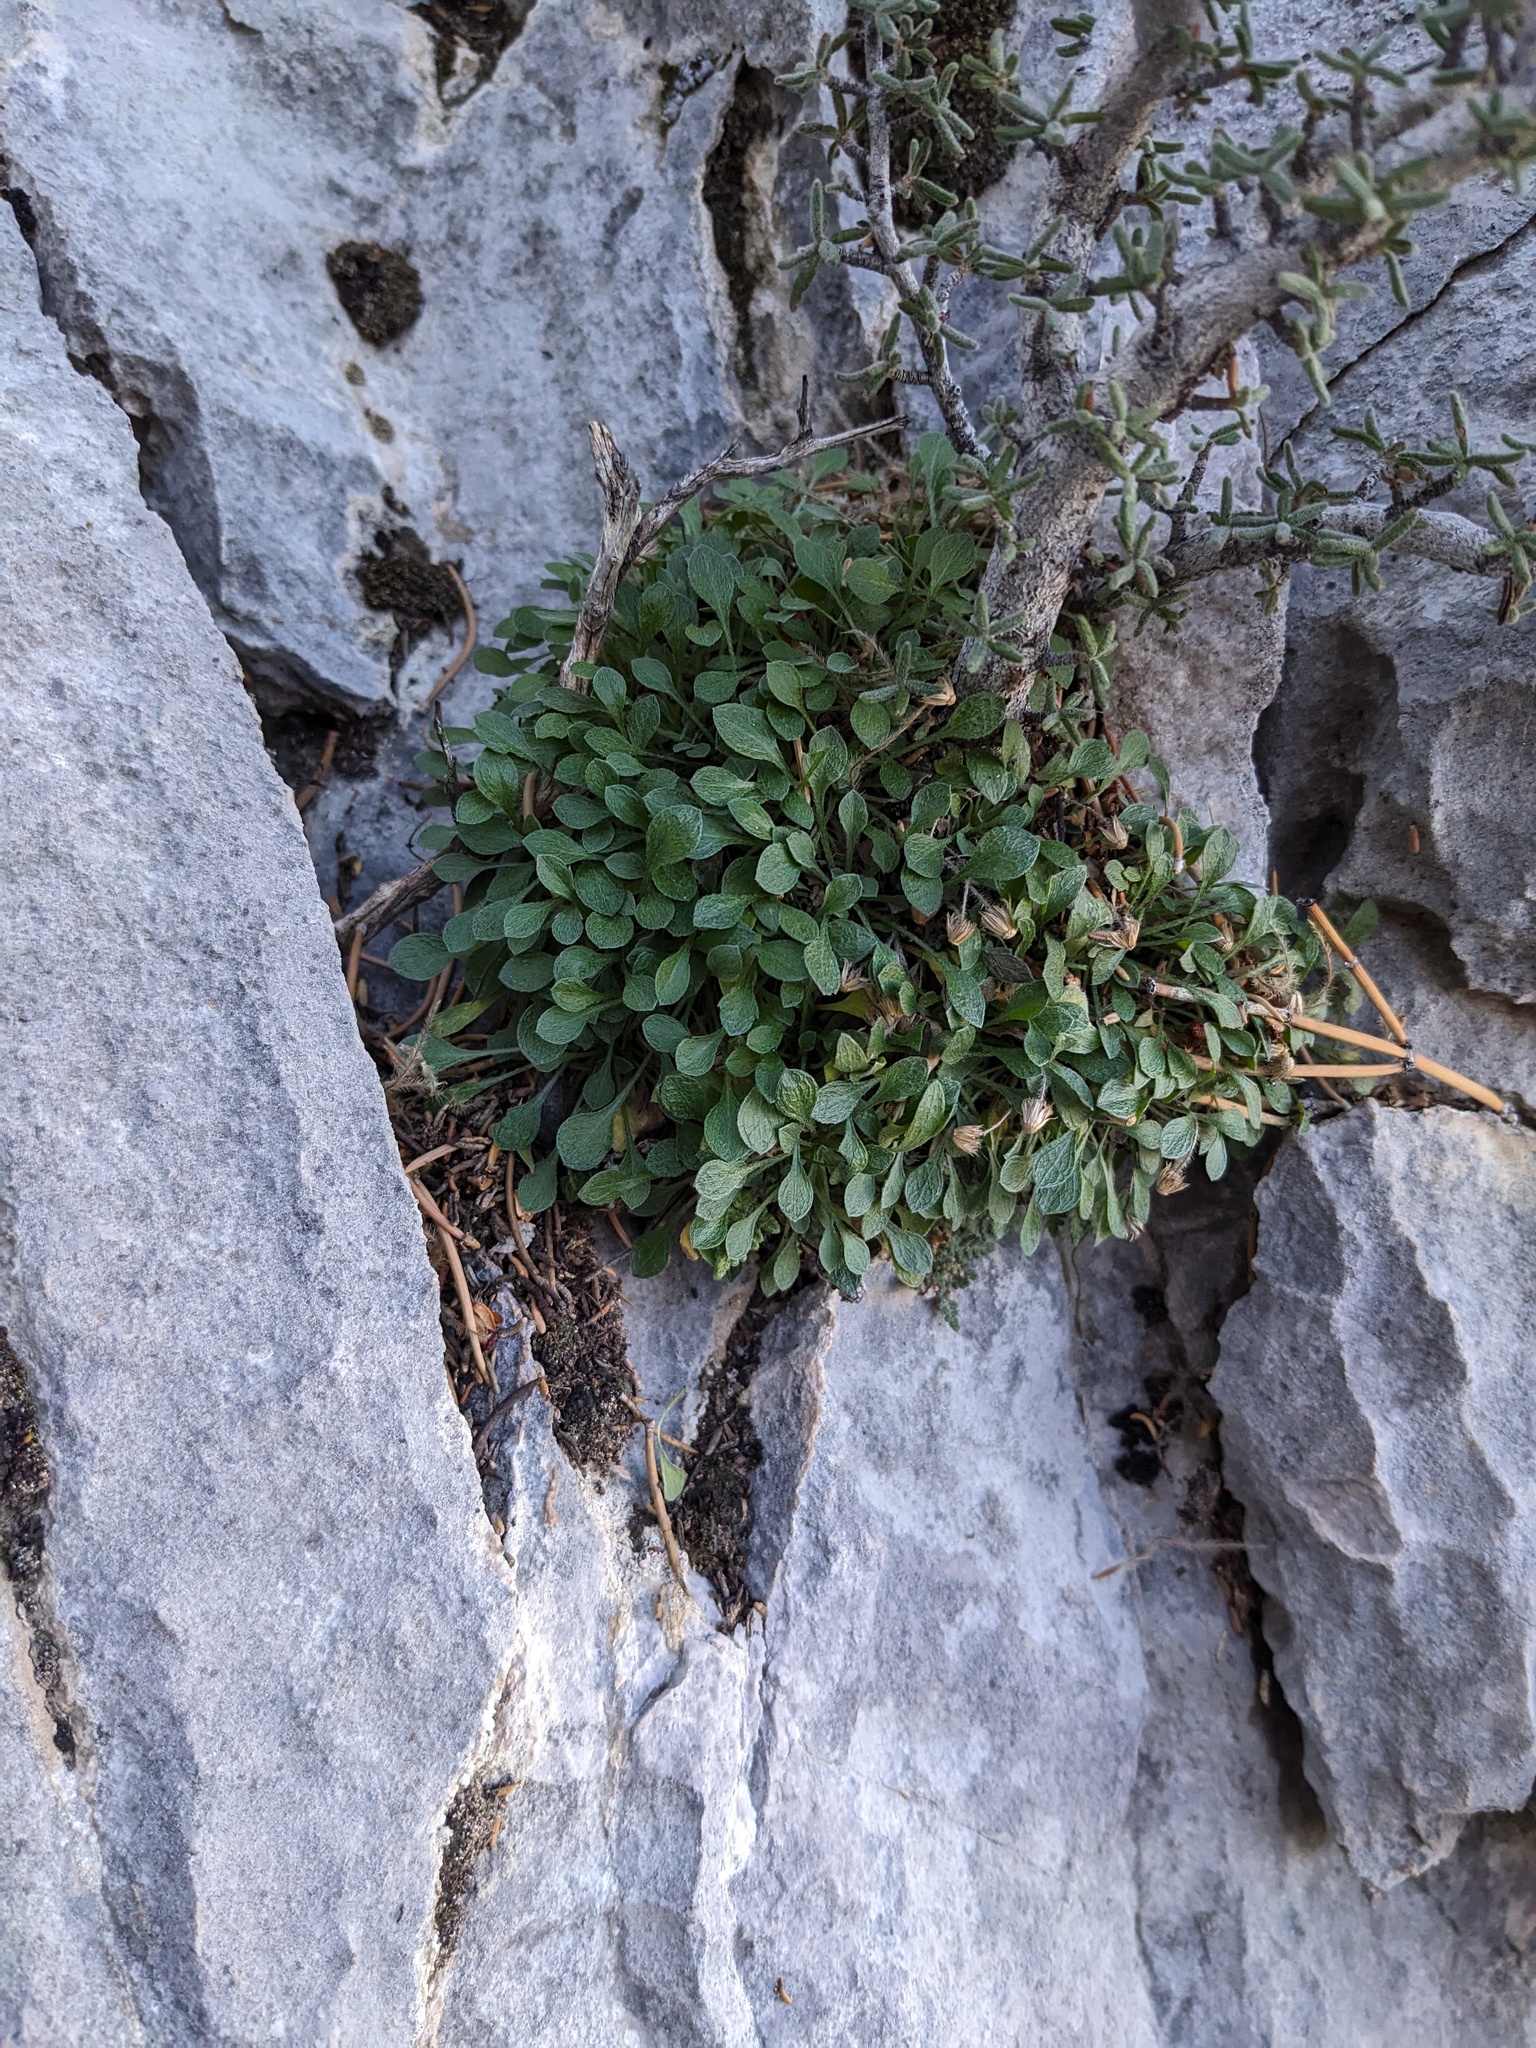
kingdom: Plantae
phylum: Tracheophyta
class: Magnoliopsida
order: Asterales
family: Asteraceae
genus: Erigeron
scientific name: Erigeron uncialis
